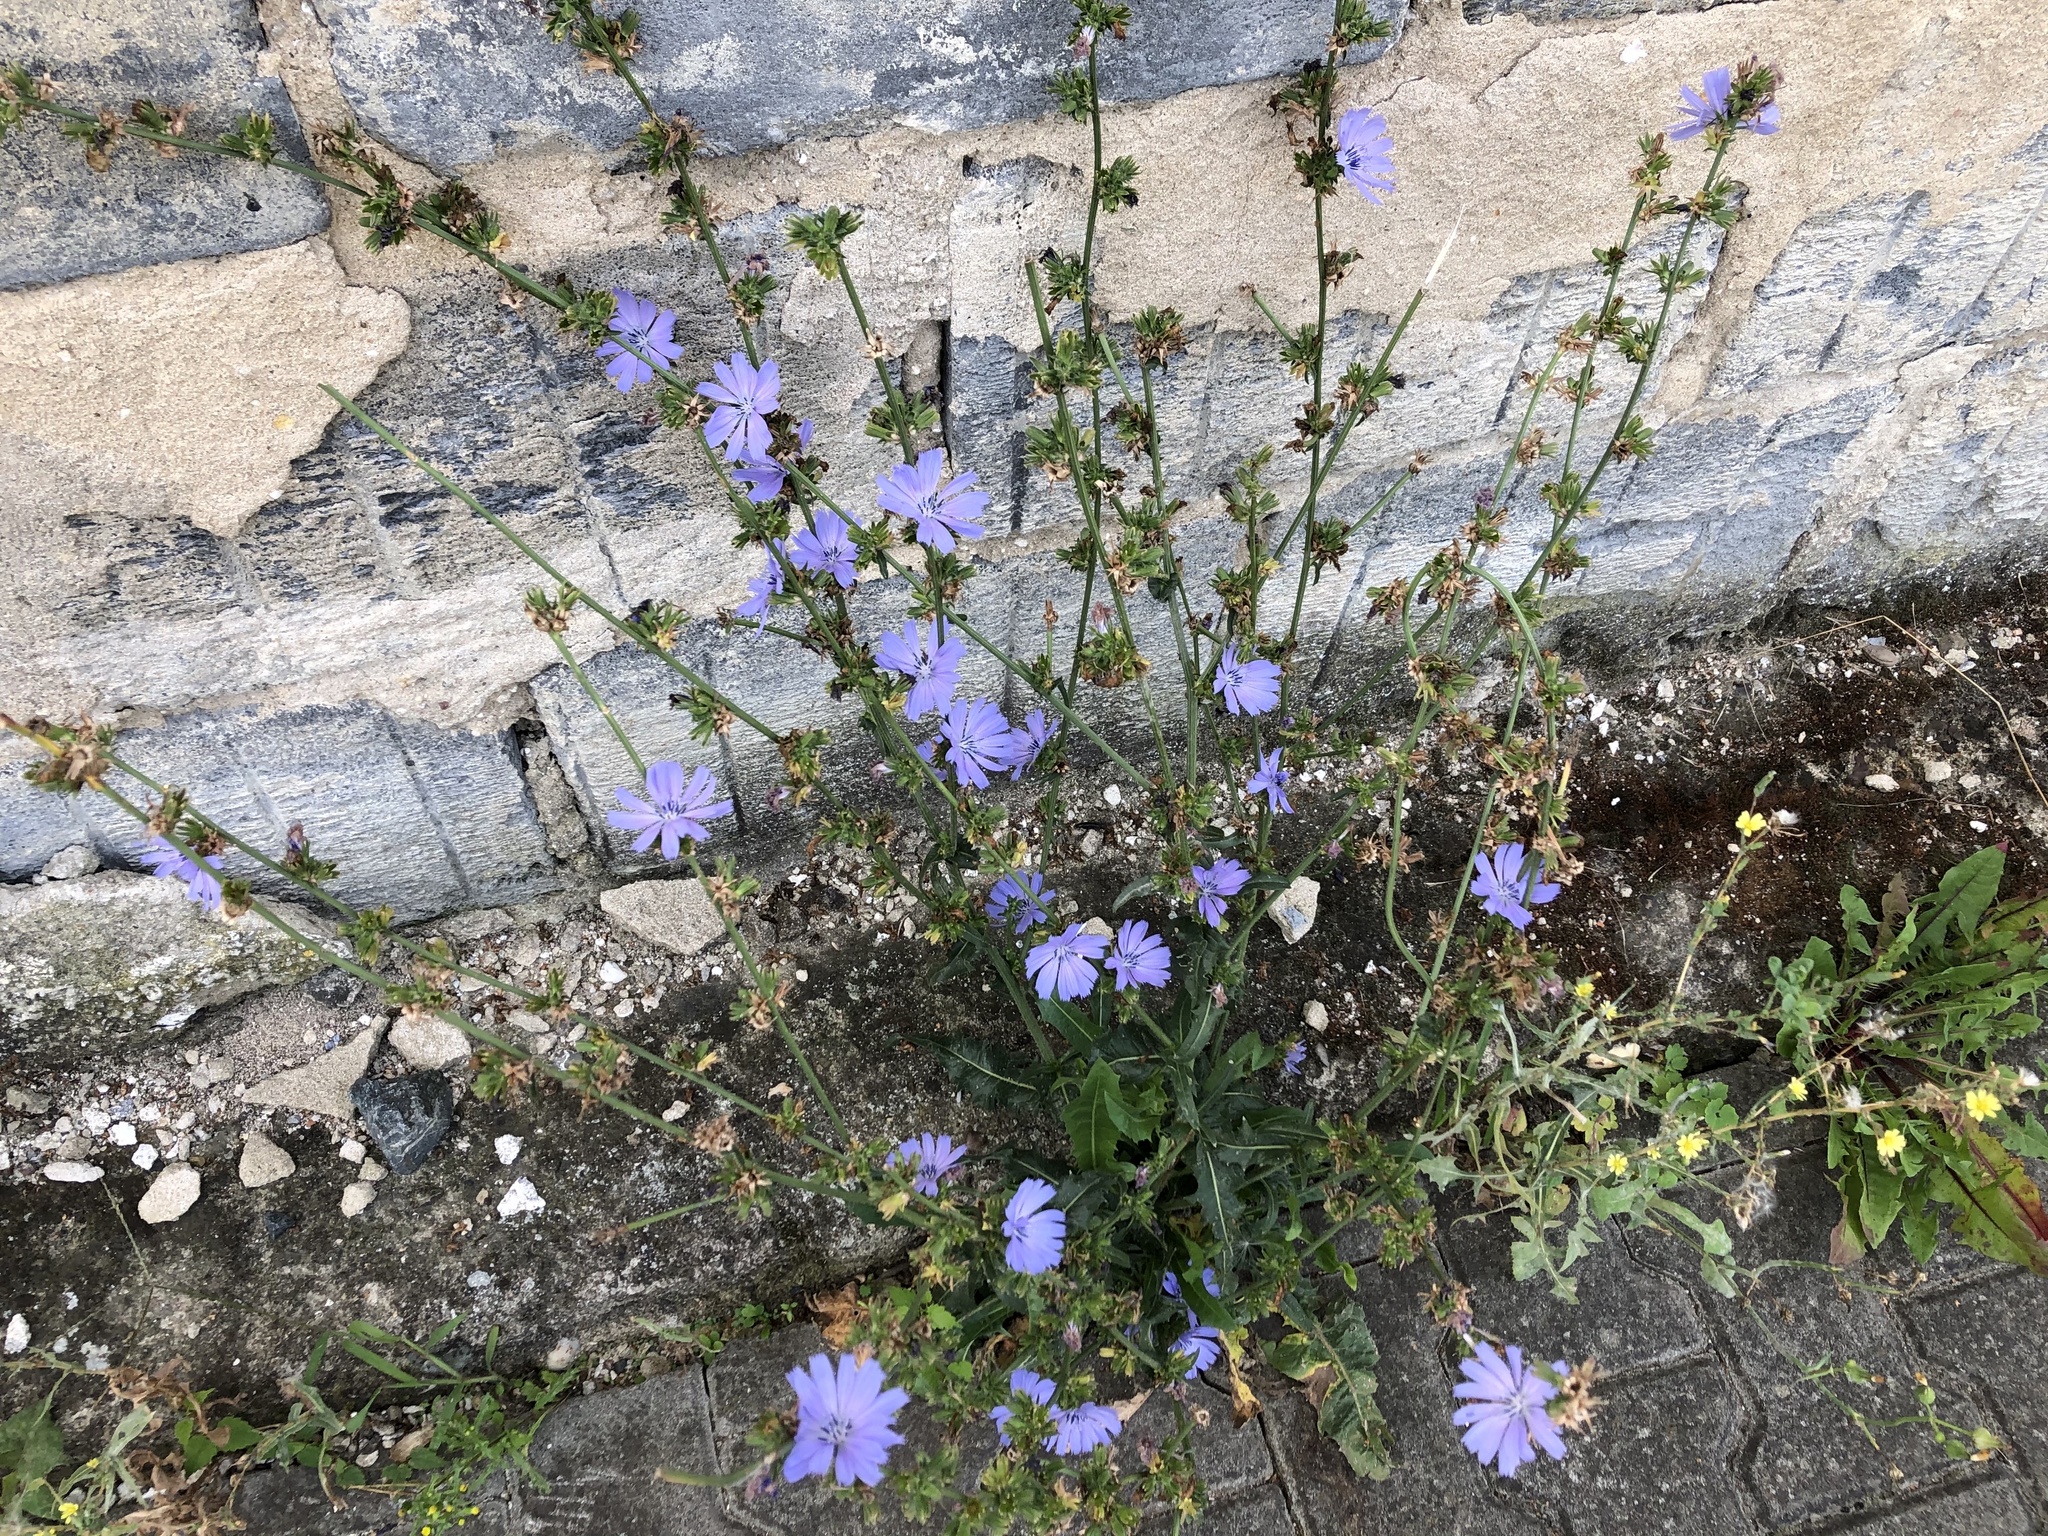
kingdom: Plantae
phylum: Tracheophyta
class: Magnoliopsida
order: Asterales
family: Asteraceae
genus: Cichorium
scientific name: Cichorium intybus
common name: Chicory
